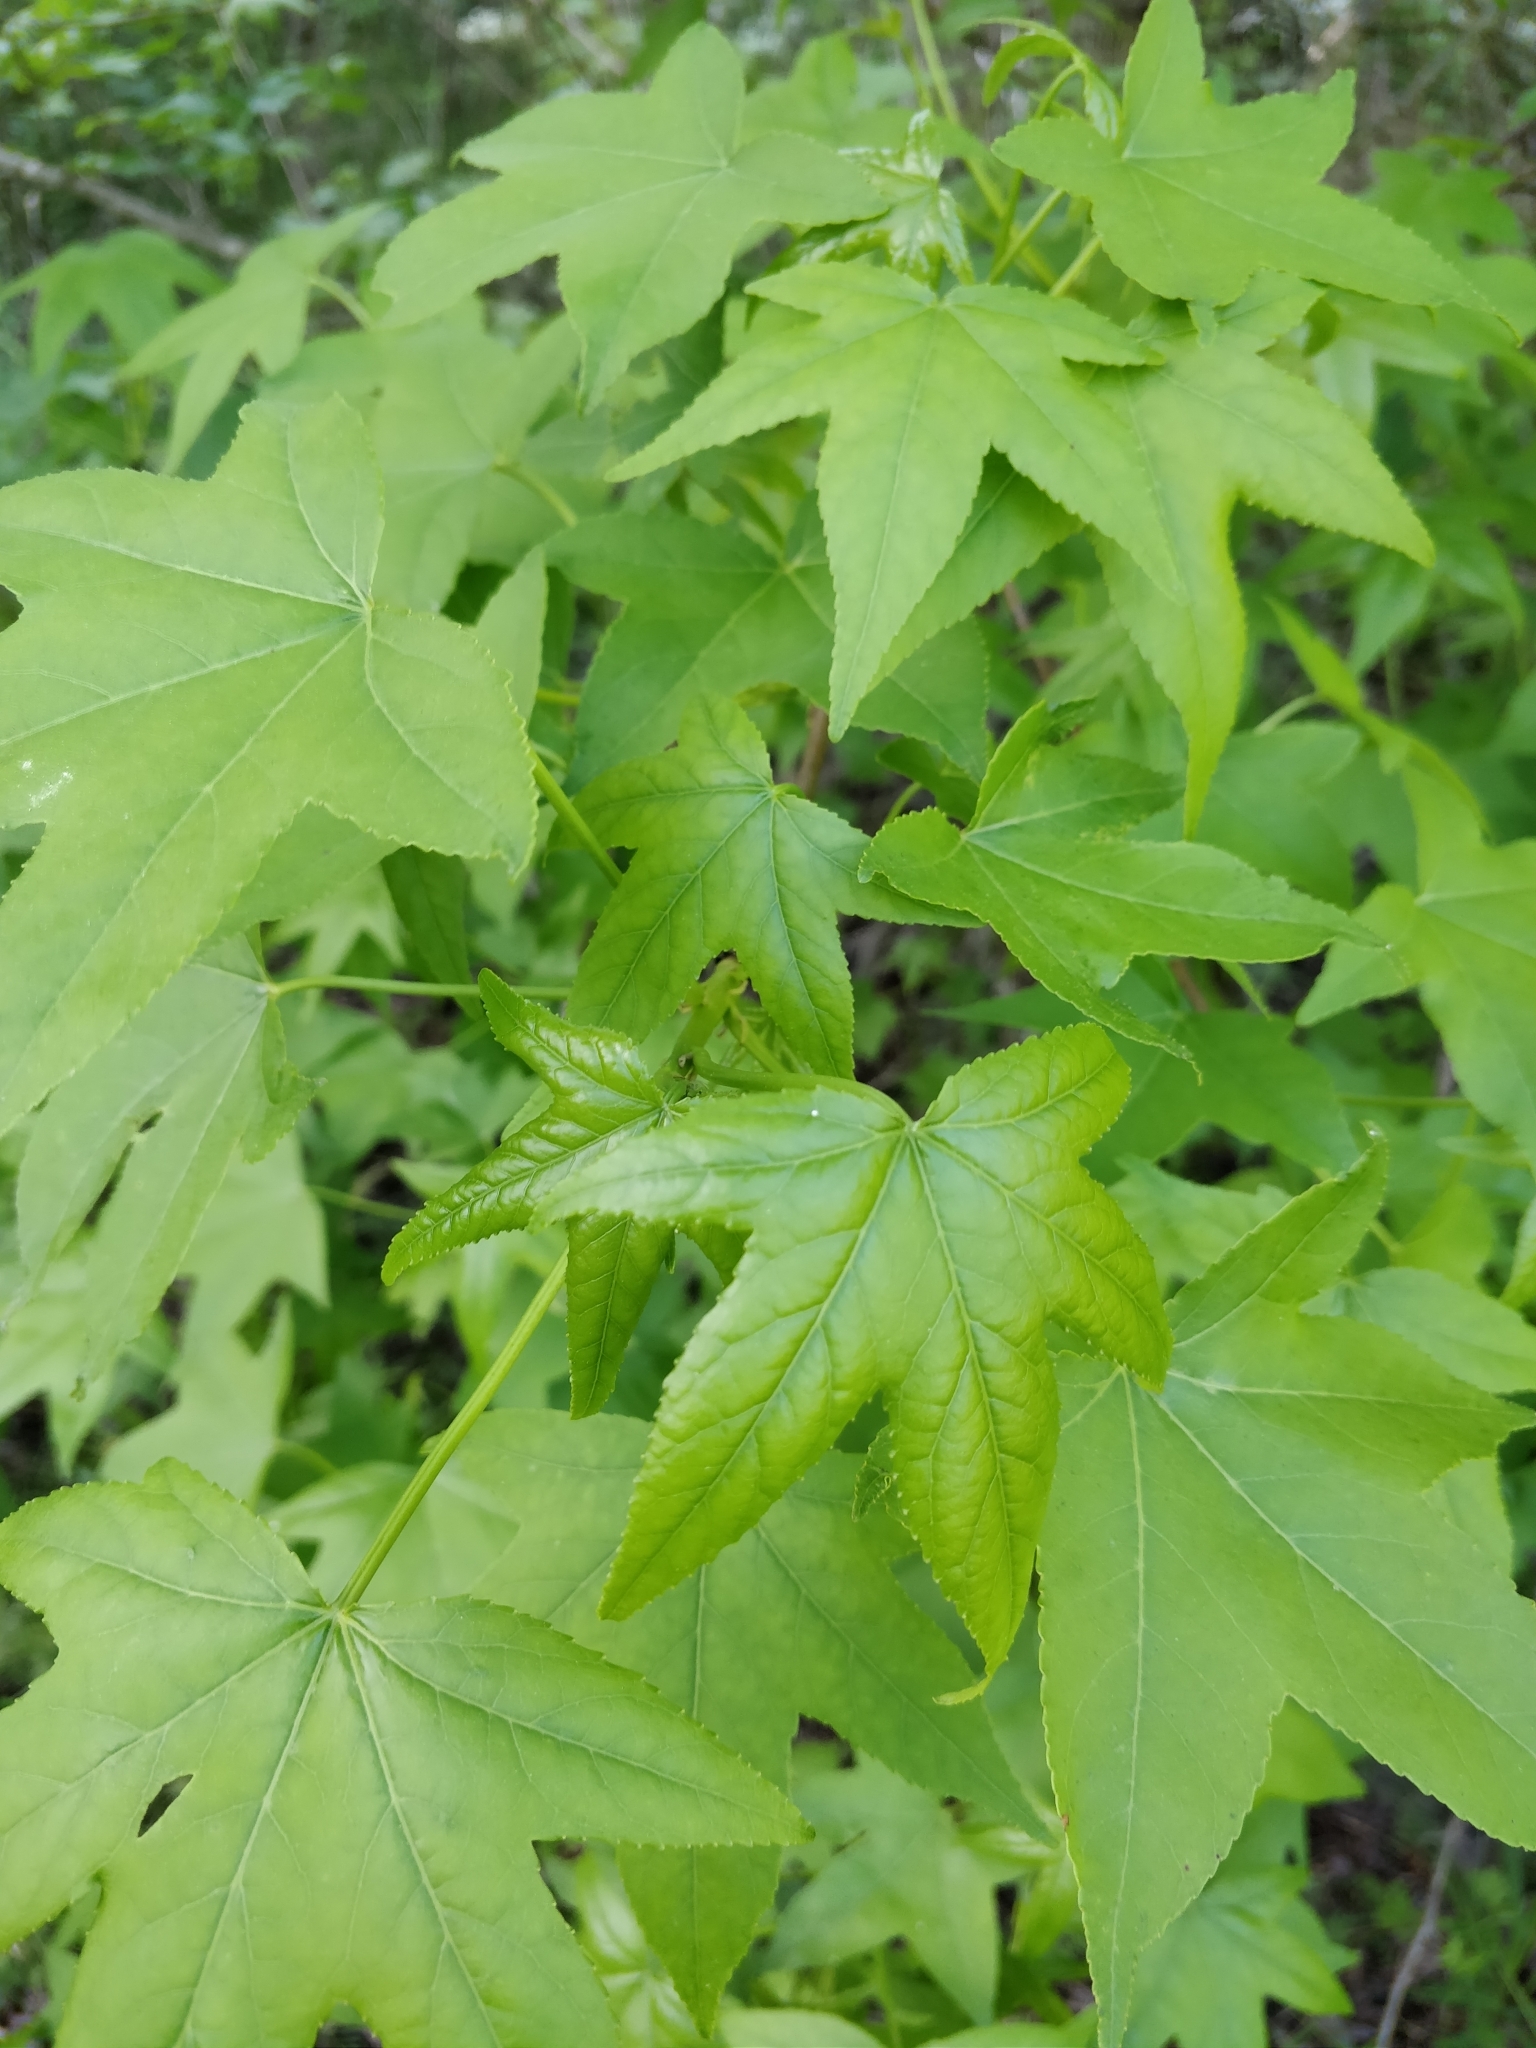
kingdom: Plantae
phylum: Tracheophyta
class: Magnoliopsida
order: Saxifragales
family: Altingiaceae
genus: Liquidambar
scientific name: Liquidambar styraciflua
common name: Sweet gum
